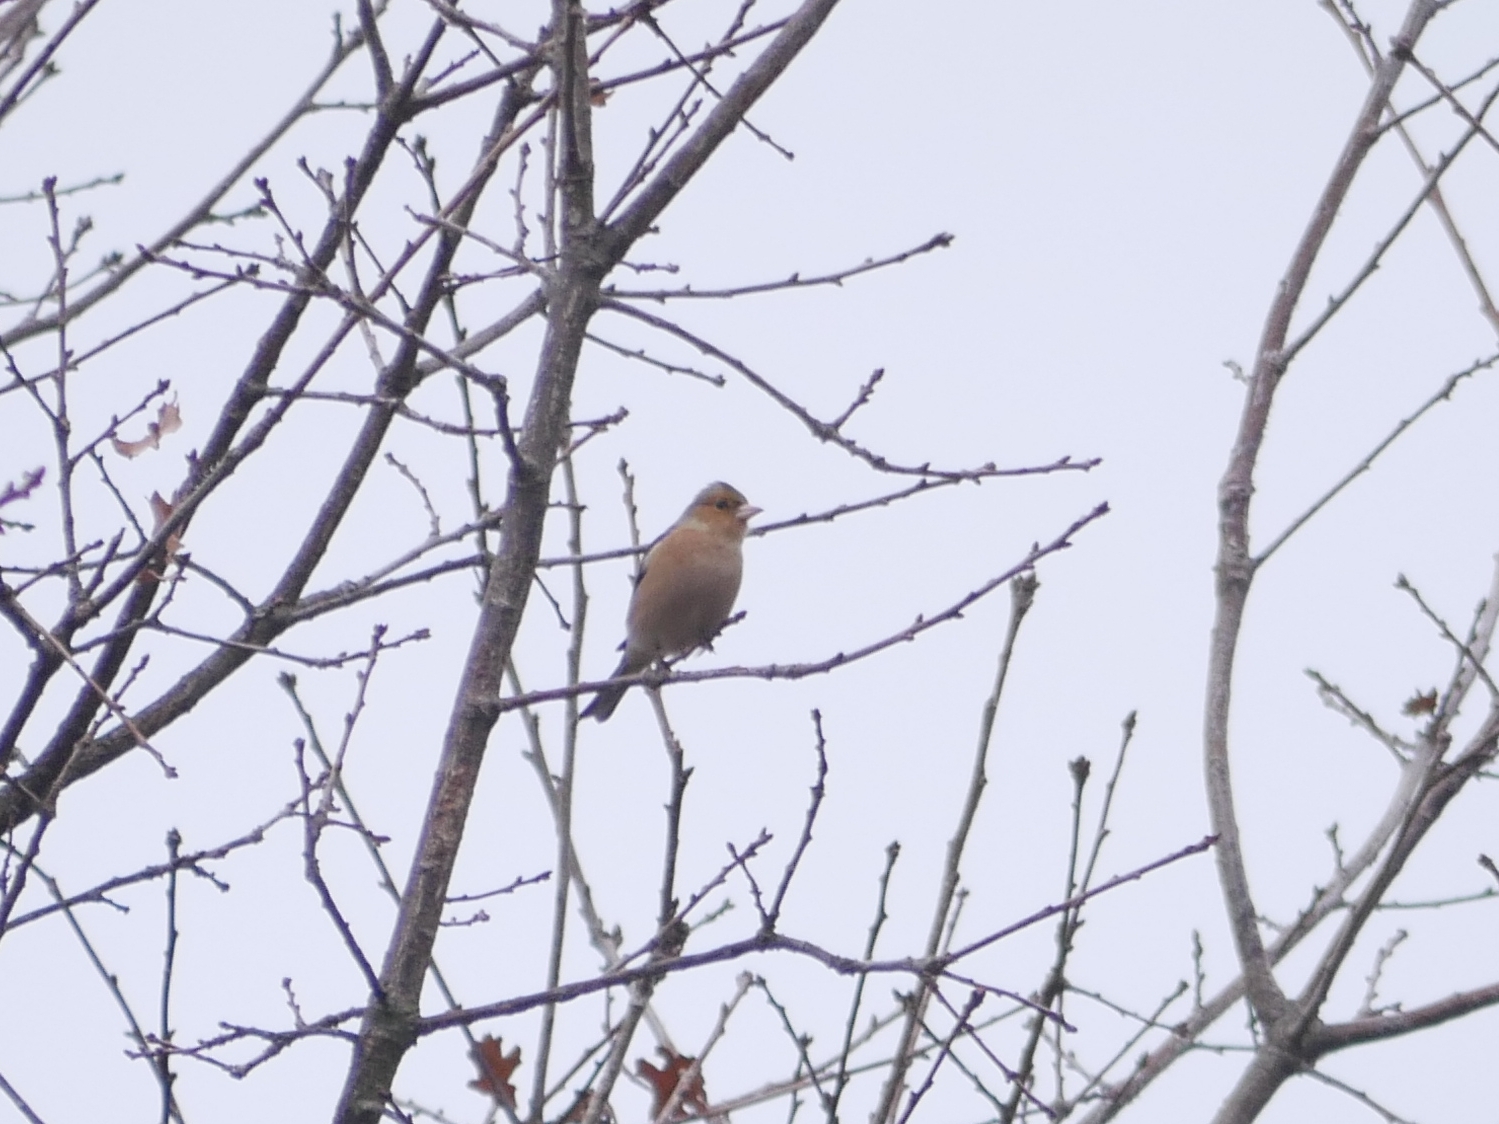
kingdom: Animalia
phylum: Chordata
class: Aves
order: Passeriformes
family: Fringillidae
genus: Fringilla
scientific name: Fringilla coelebs
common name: Common chaffinch
